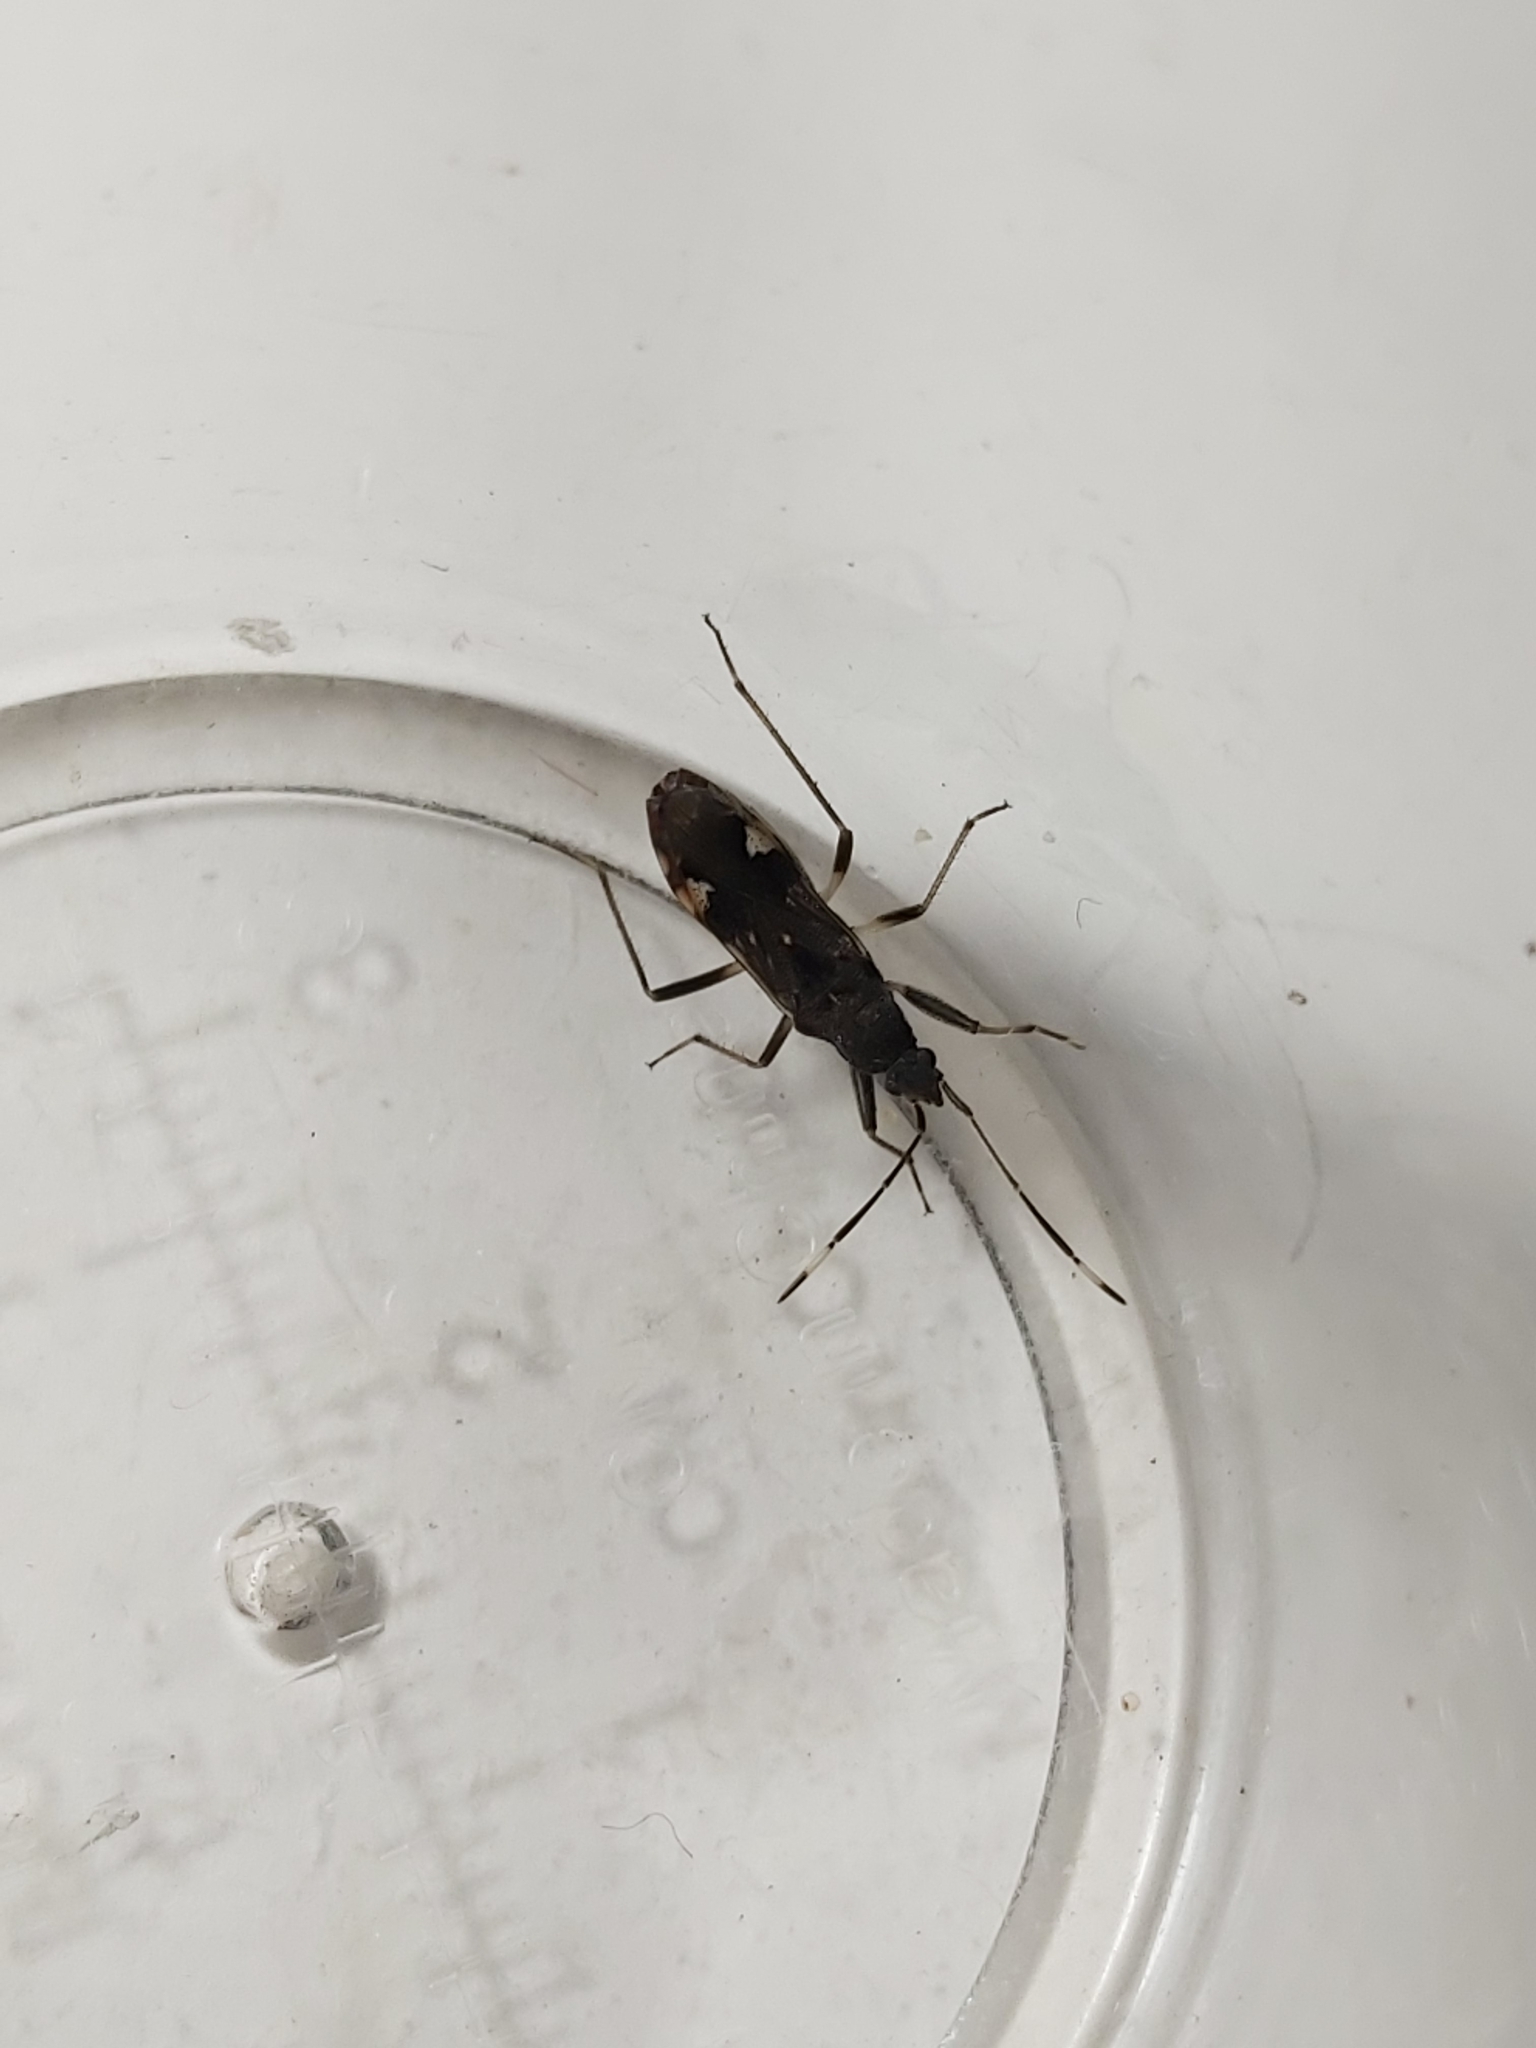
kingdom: Animalia
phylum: Arthropoda
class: Insecta
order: Hemiptera
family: Rhyparochromidae
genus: Metochus
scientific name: Metochus abbreviatus
